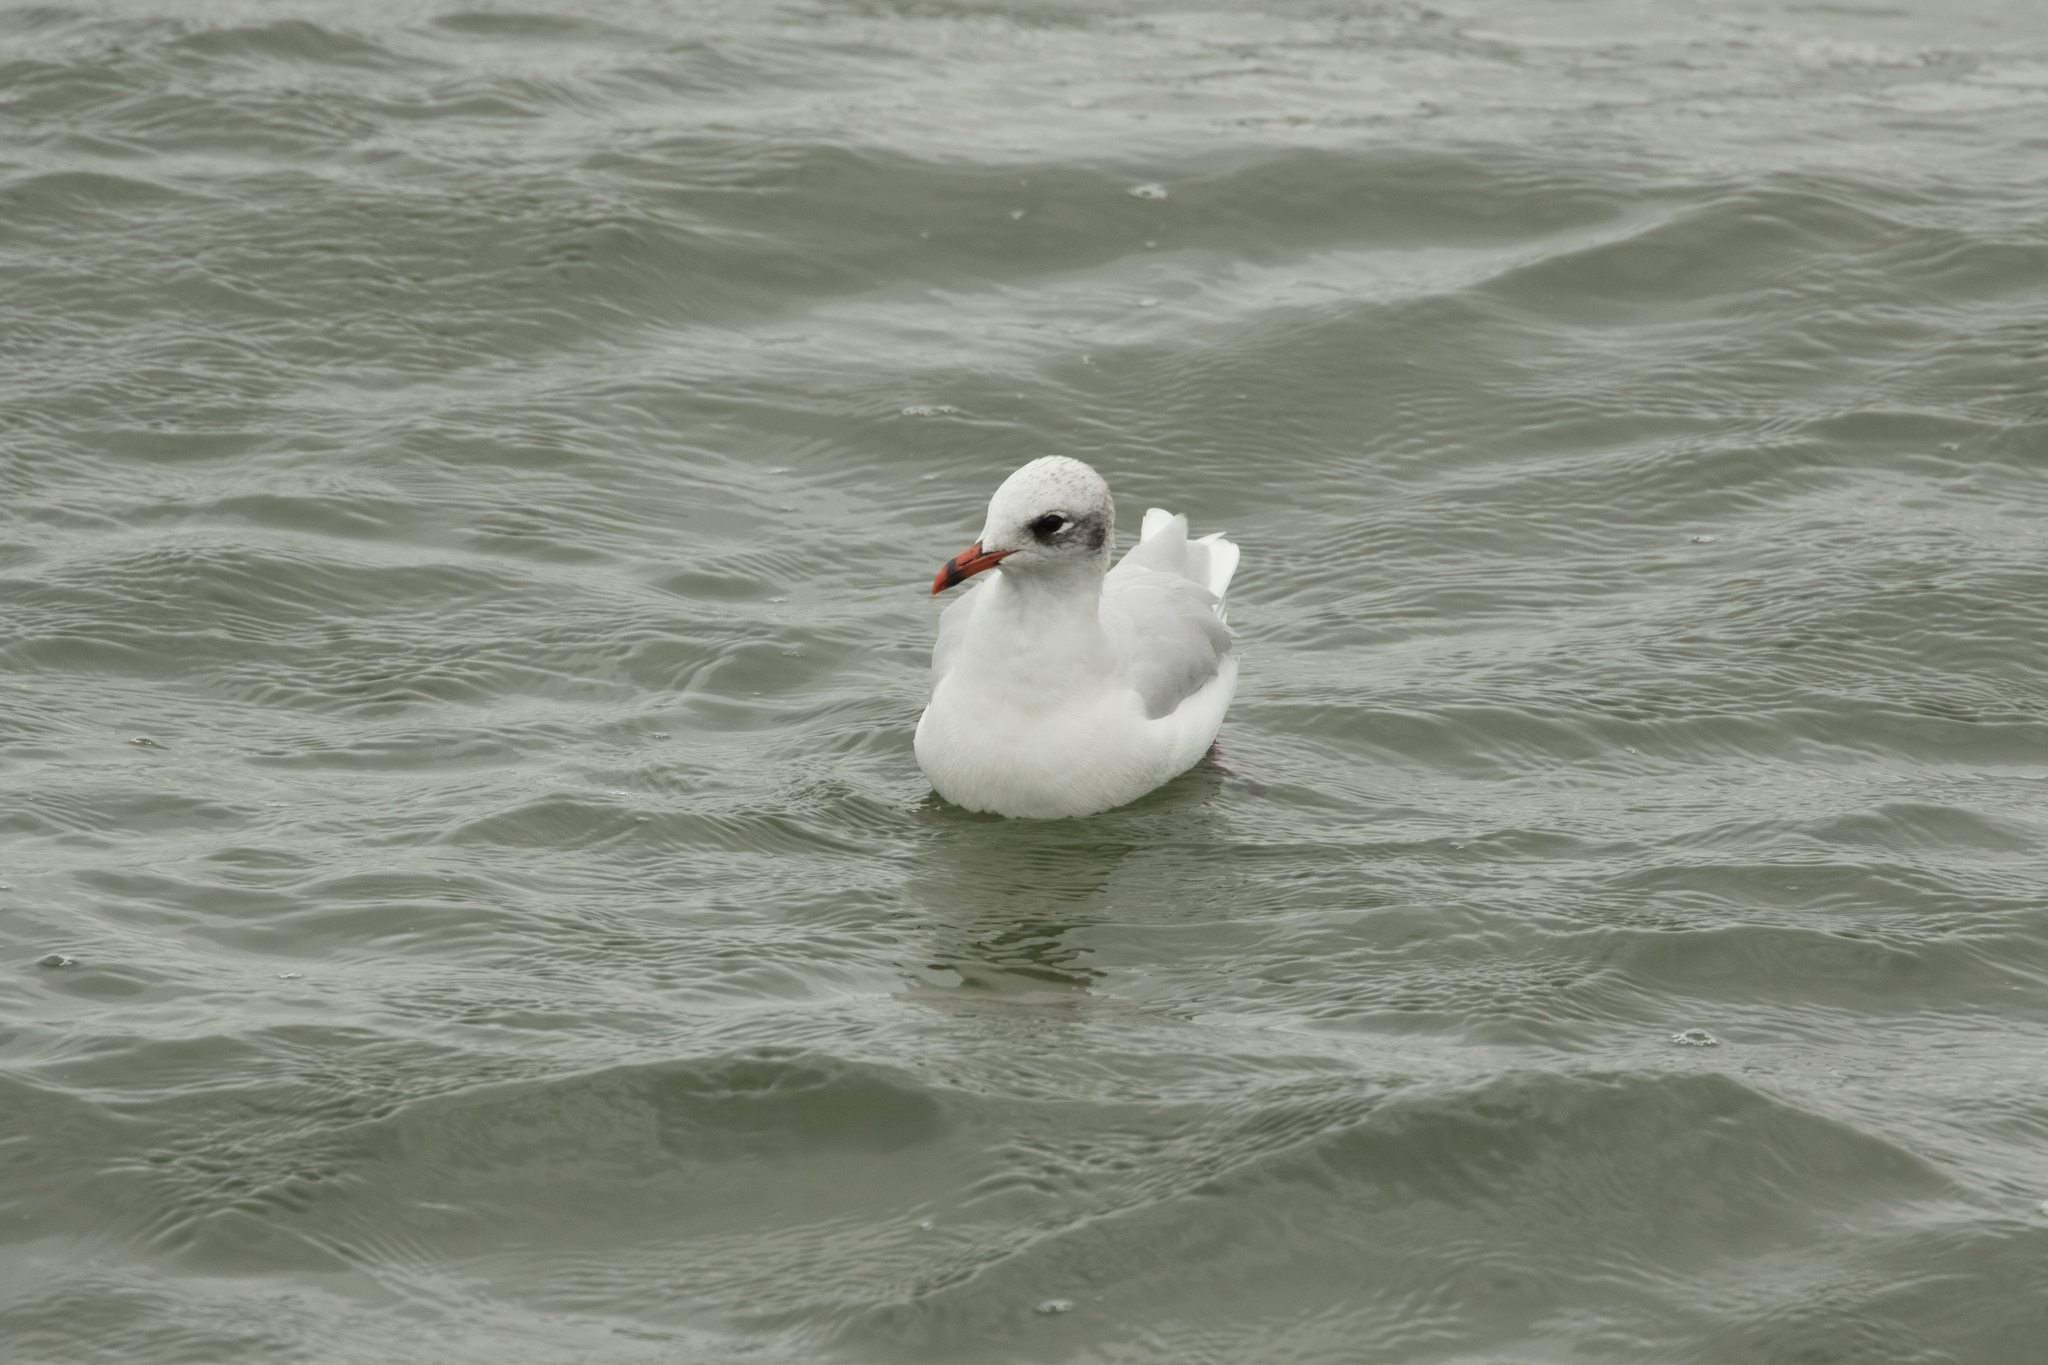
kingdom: Animalia
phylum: Chordata
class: Aves
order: Charadriiformes
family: Laridae
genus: Ichthyaetus
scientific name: Ichthyaetus melanocephalus
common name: Mediterranean gull
